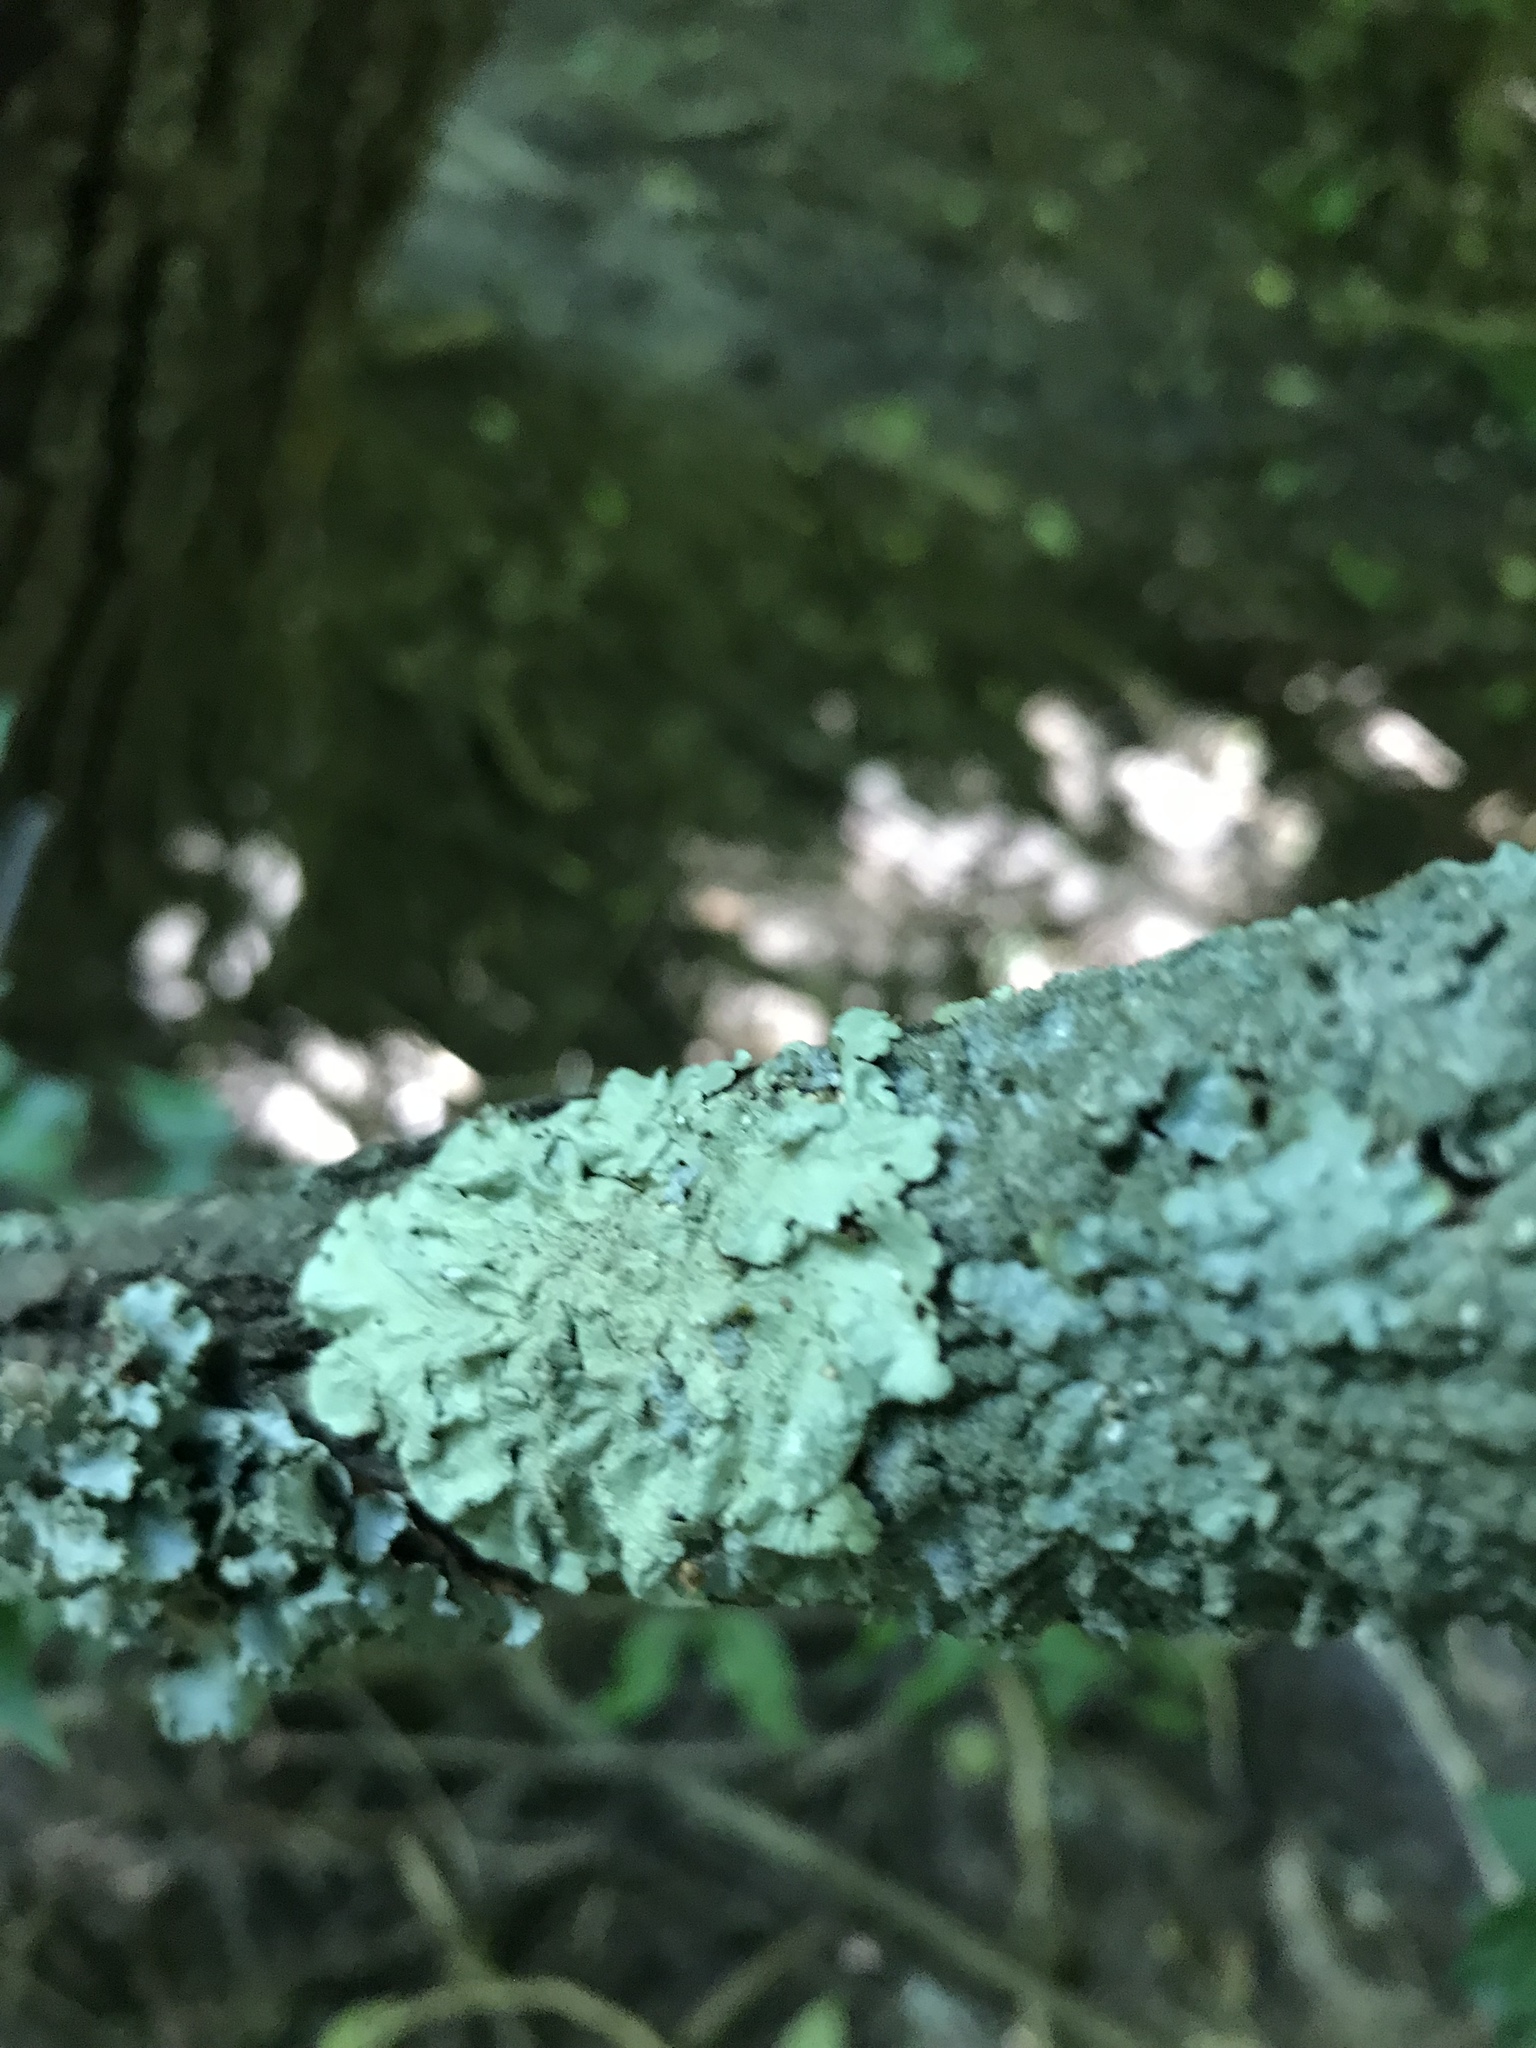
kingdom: Fungi
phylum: Ascomycota
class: Lecanoromycetes
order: Lecanorales
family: Parmeliaceae
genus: Flavoparmelia
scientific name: Flavoparmelia caperata
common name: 40-mile per hour lichen
